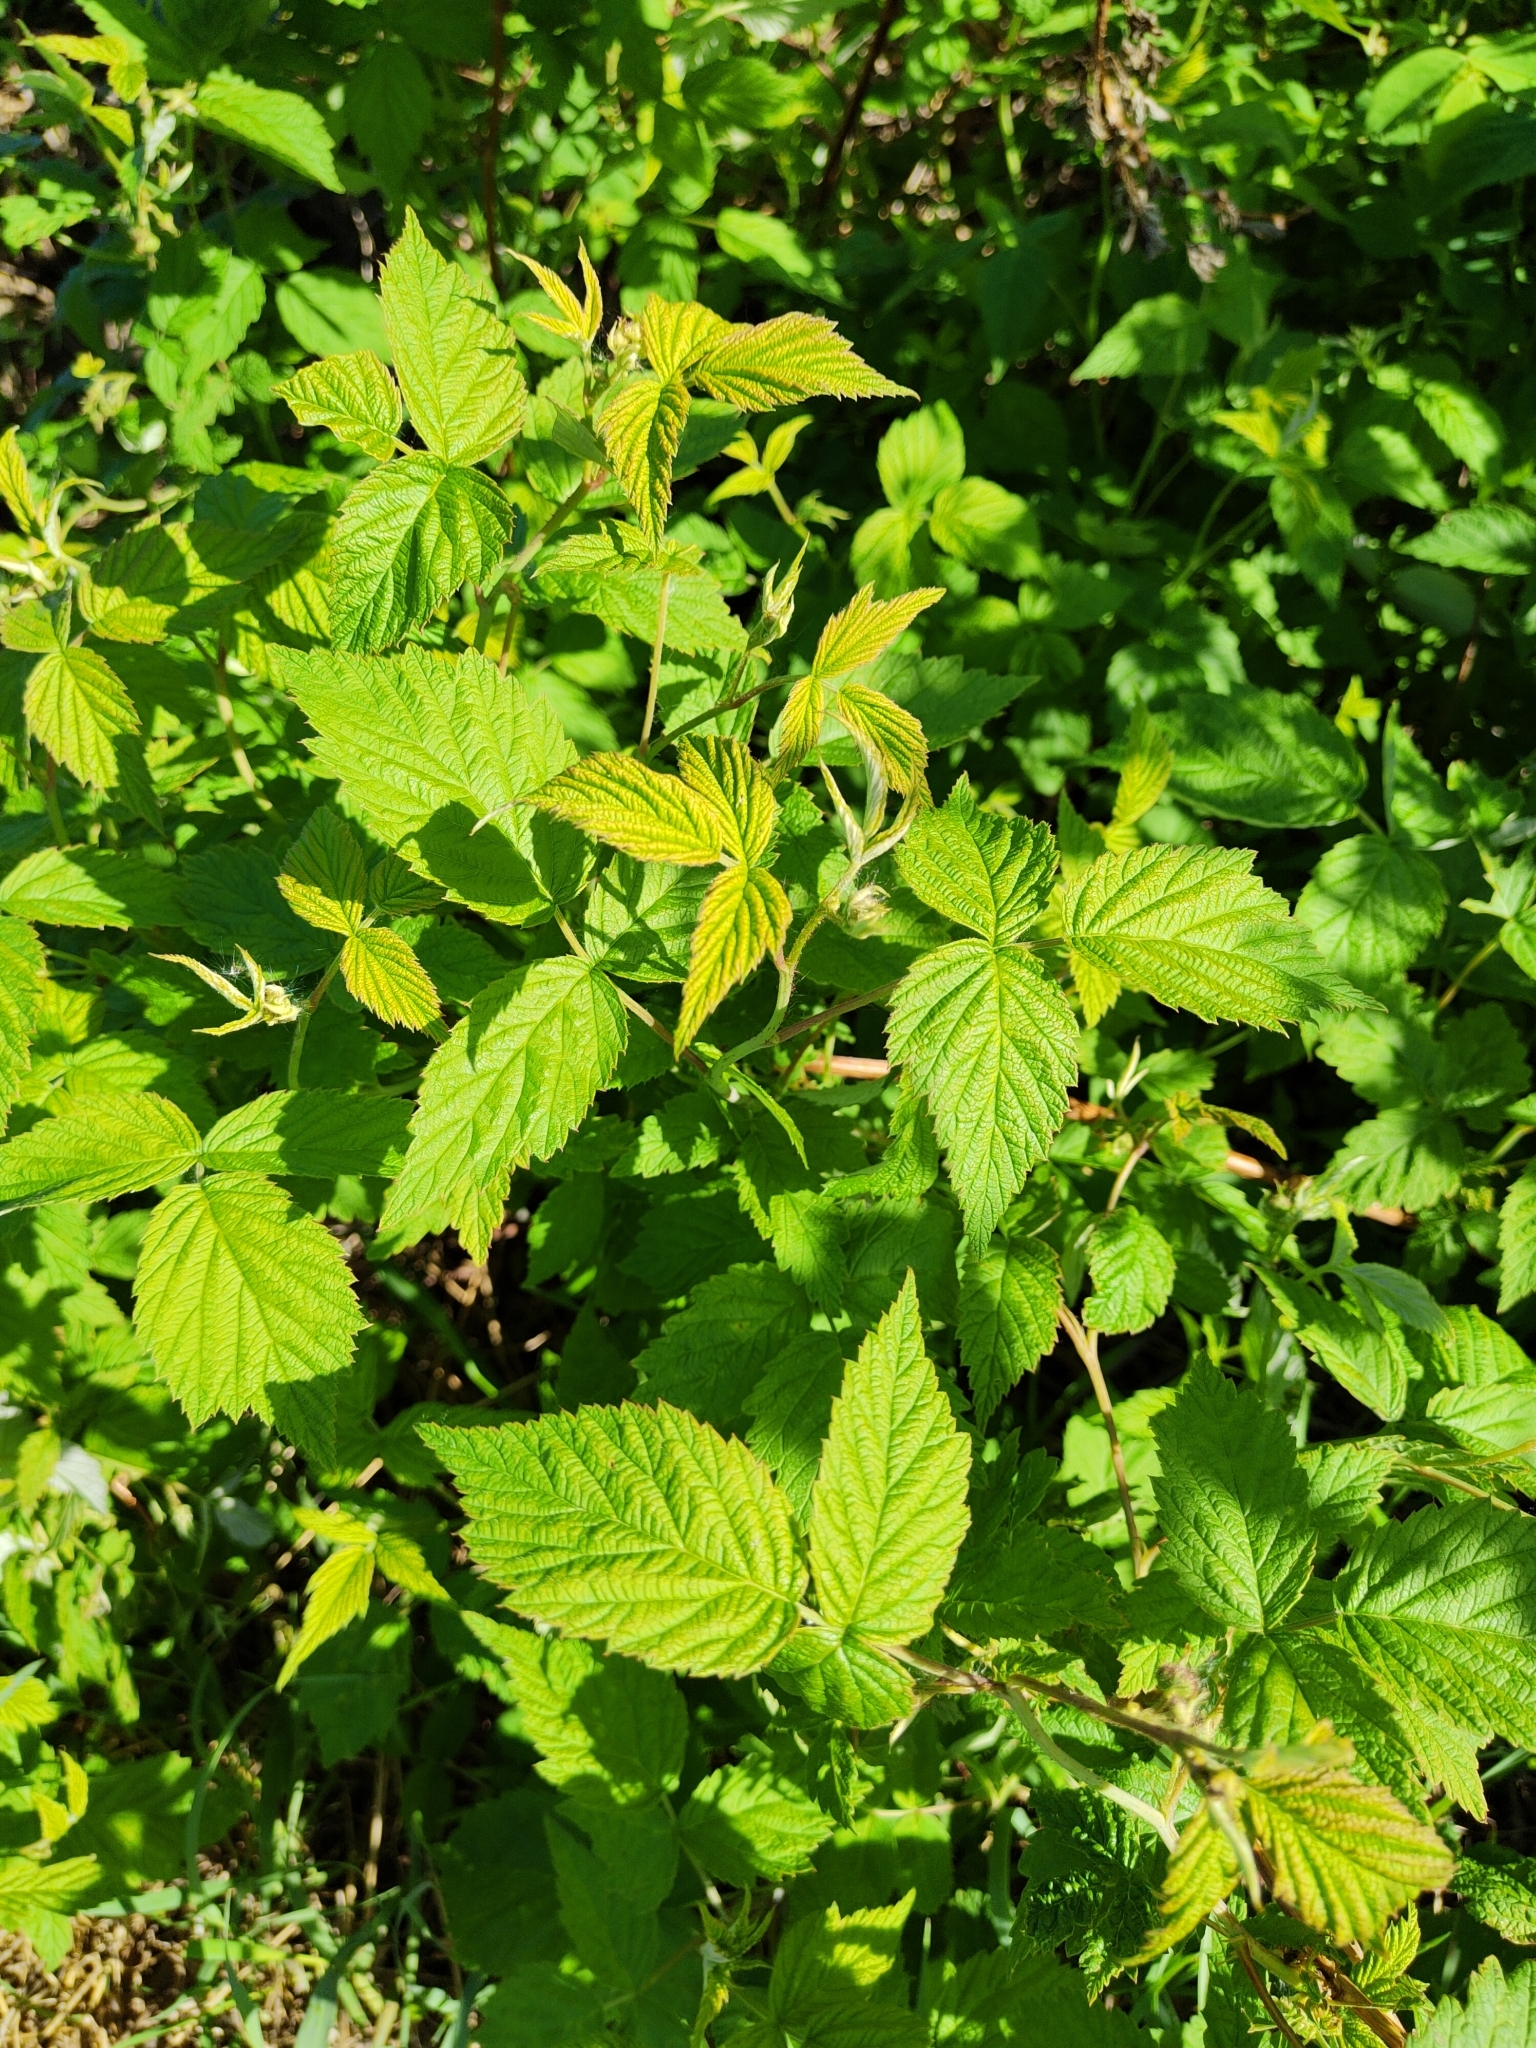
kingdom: Plantae
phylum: Tracheophyta
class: Magnoliopsida
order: Rosales
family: Rosaceae
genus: Rubus
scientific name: Rubus idaeus
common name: Raspberry
